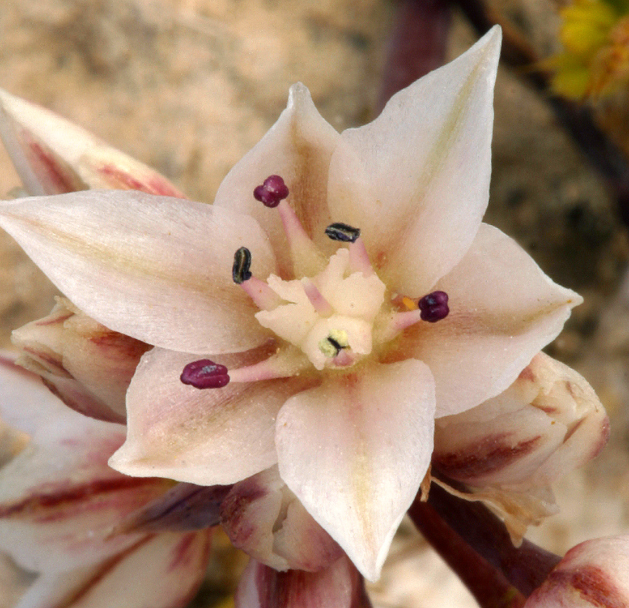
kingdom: Plantae
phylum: Tracheophyta
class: Liliopsida
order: Asparagales
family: Amaryllidaceae
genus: Allium
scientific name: Allium atrorubens
